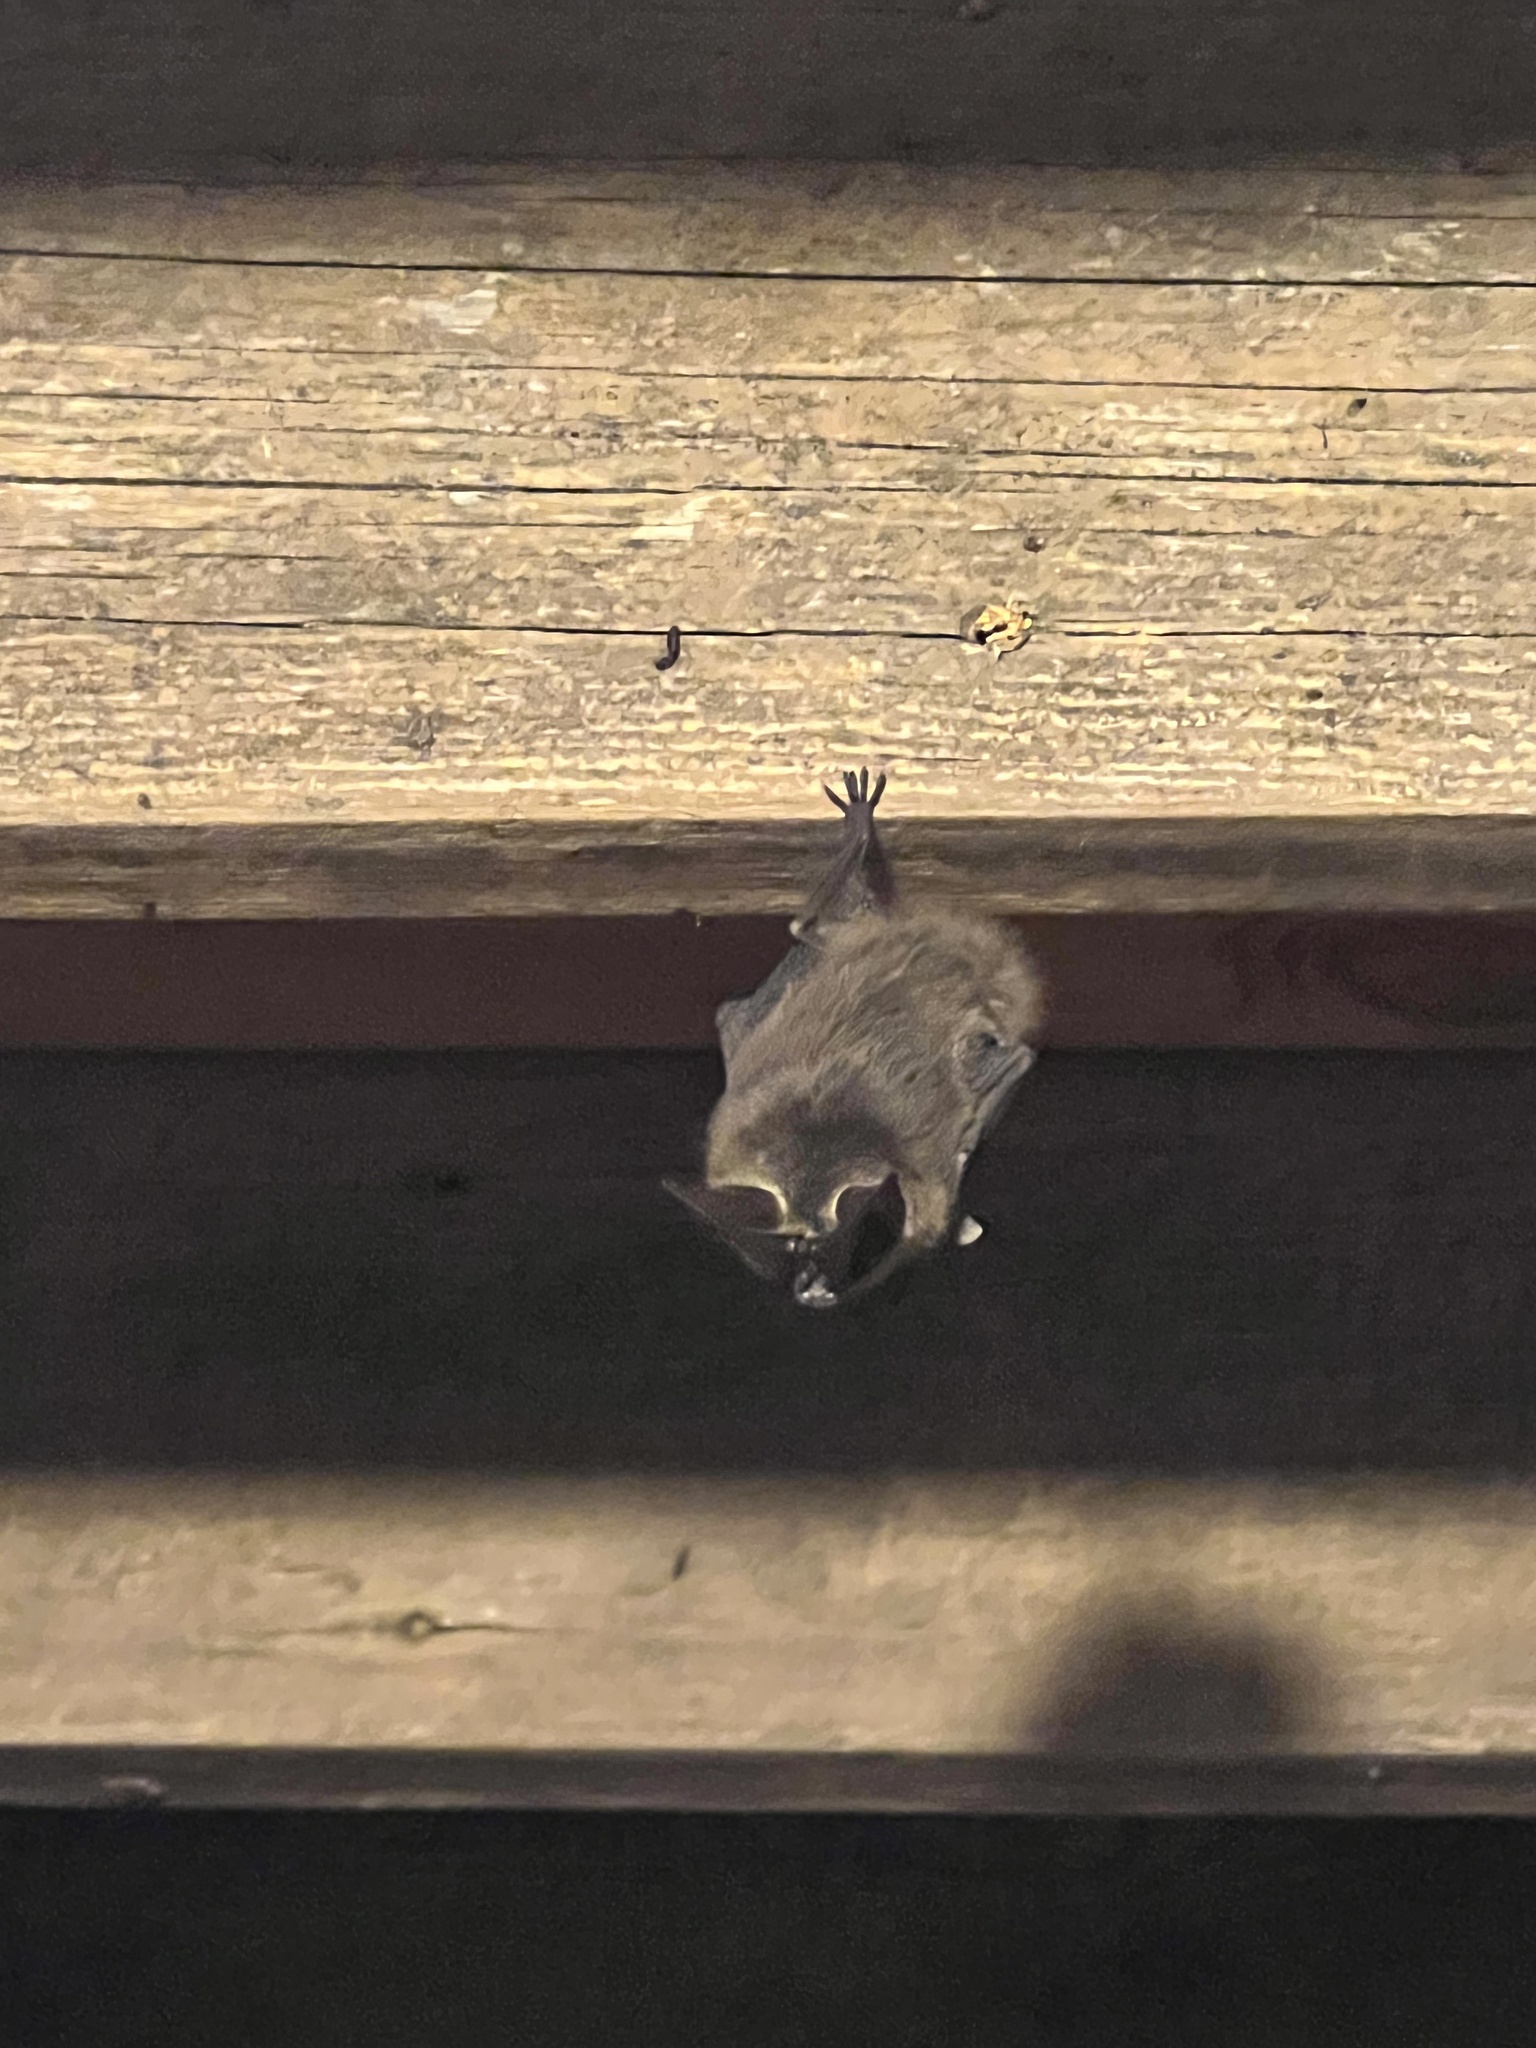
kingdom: Animalia
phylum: Chordata
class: Mammalia
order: Chiroptera
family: Vespertilionidae
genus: Corynorhinus
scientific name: Corynorhinus townsendii
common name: Townsend's big-eared bat
